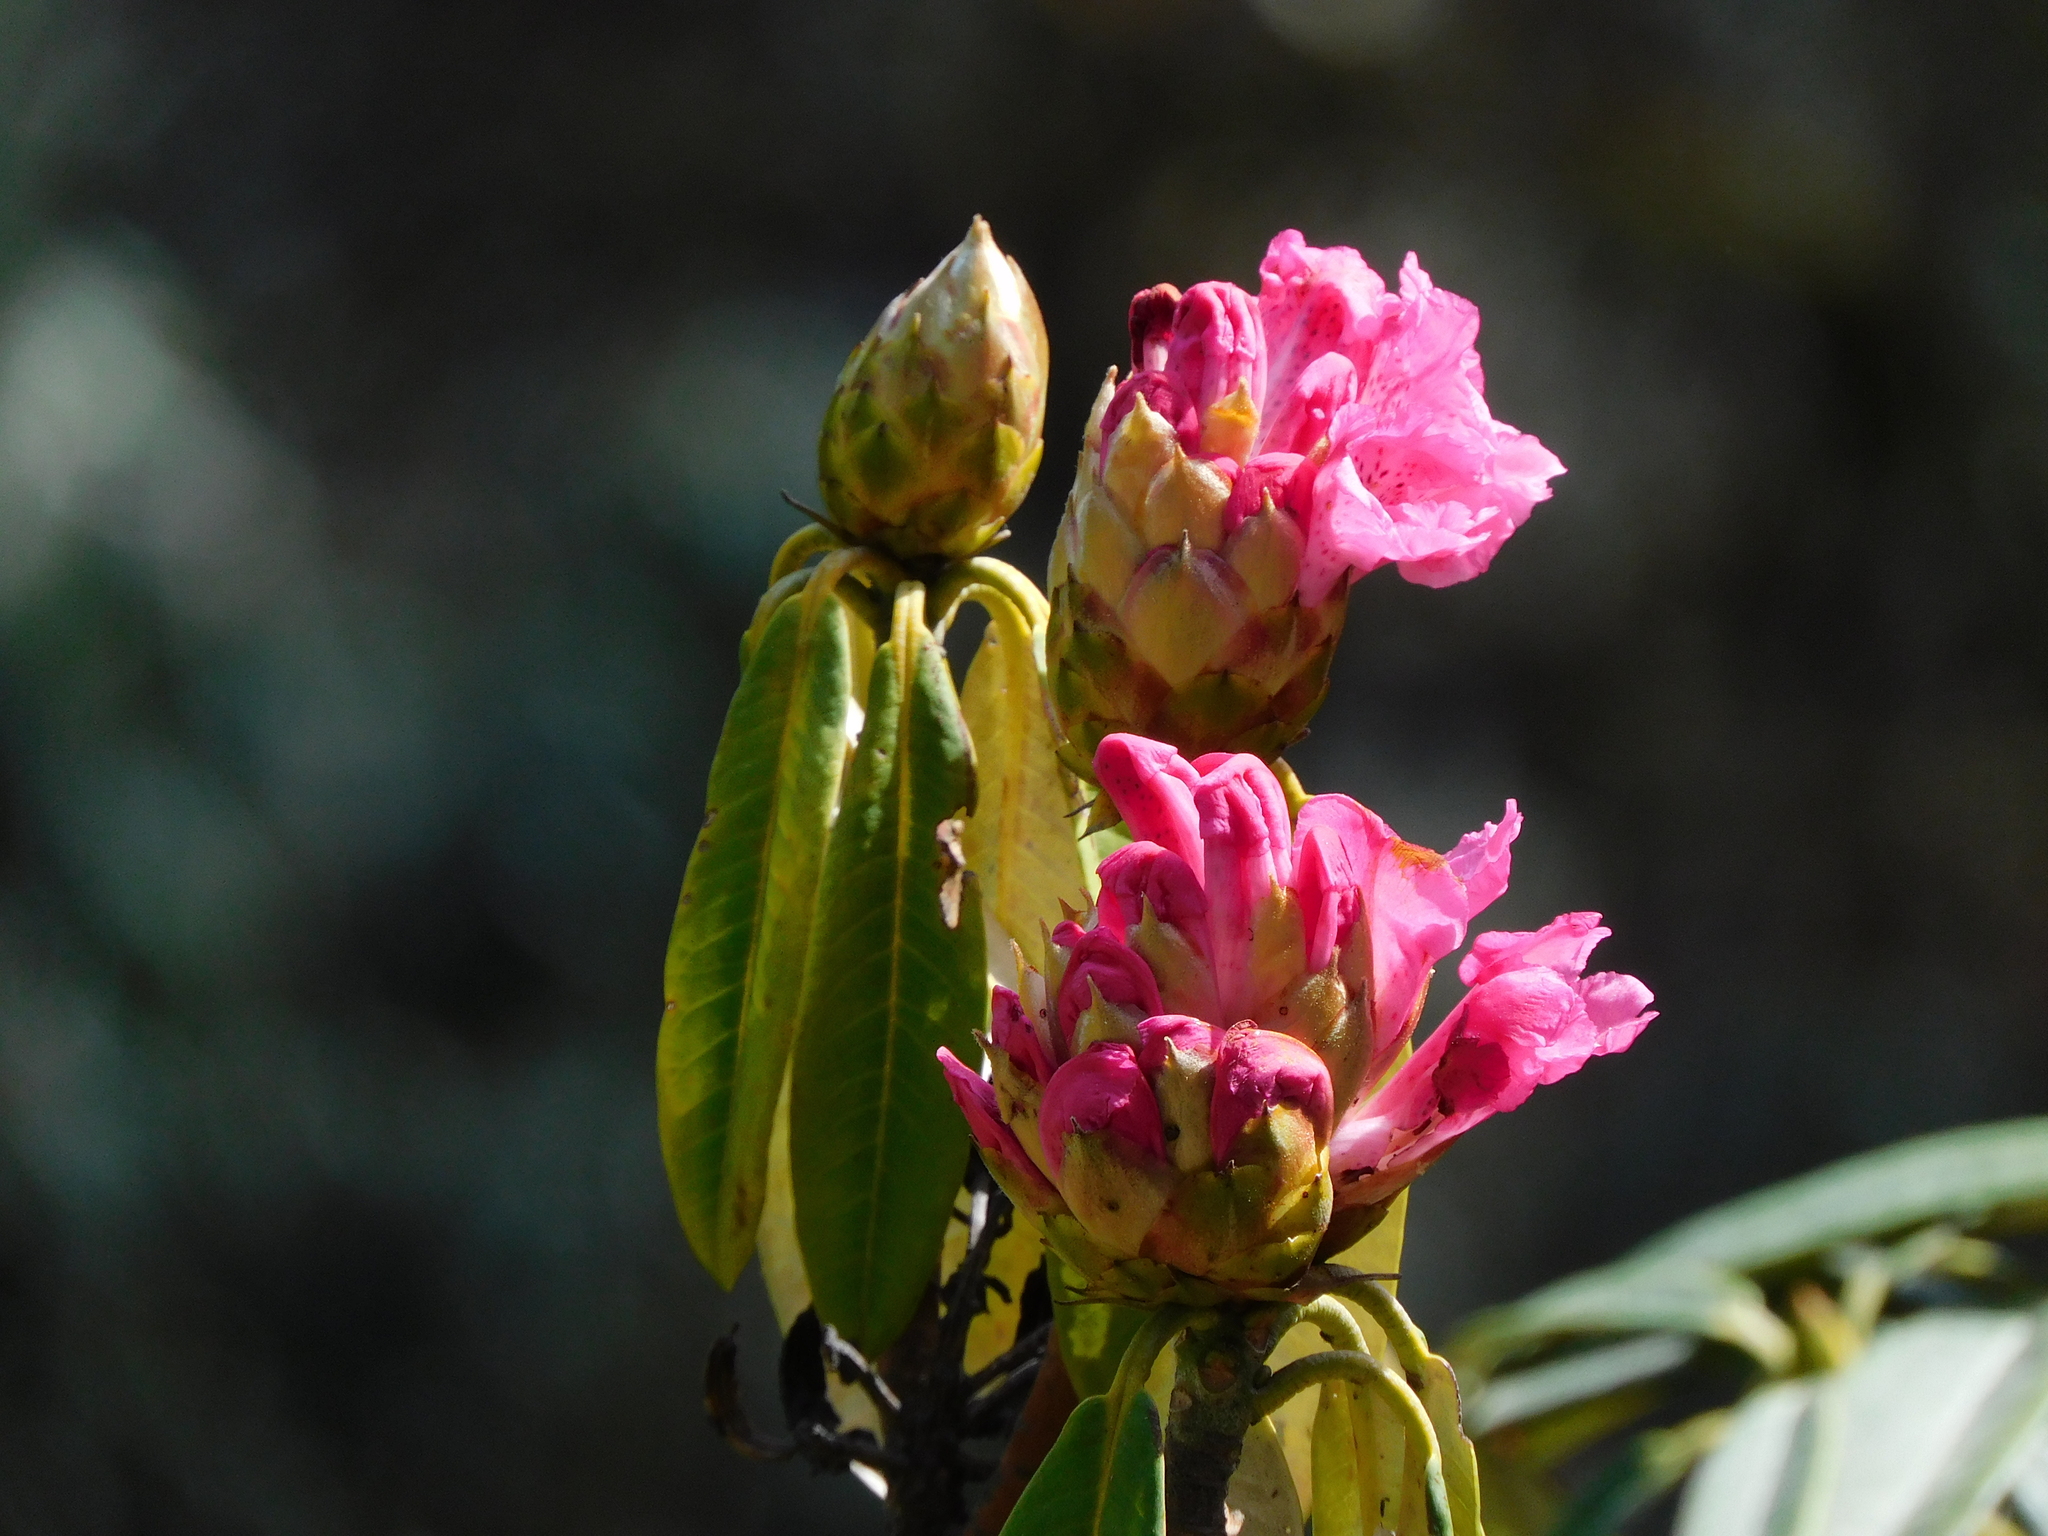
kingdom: Plantae
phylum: Tracheophyta
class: Magnoliopsida
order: Ericales
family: Ericaceae
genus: Rhododendron
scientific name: Rhododendron arboreum
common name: Tree rhododendron
